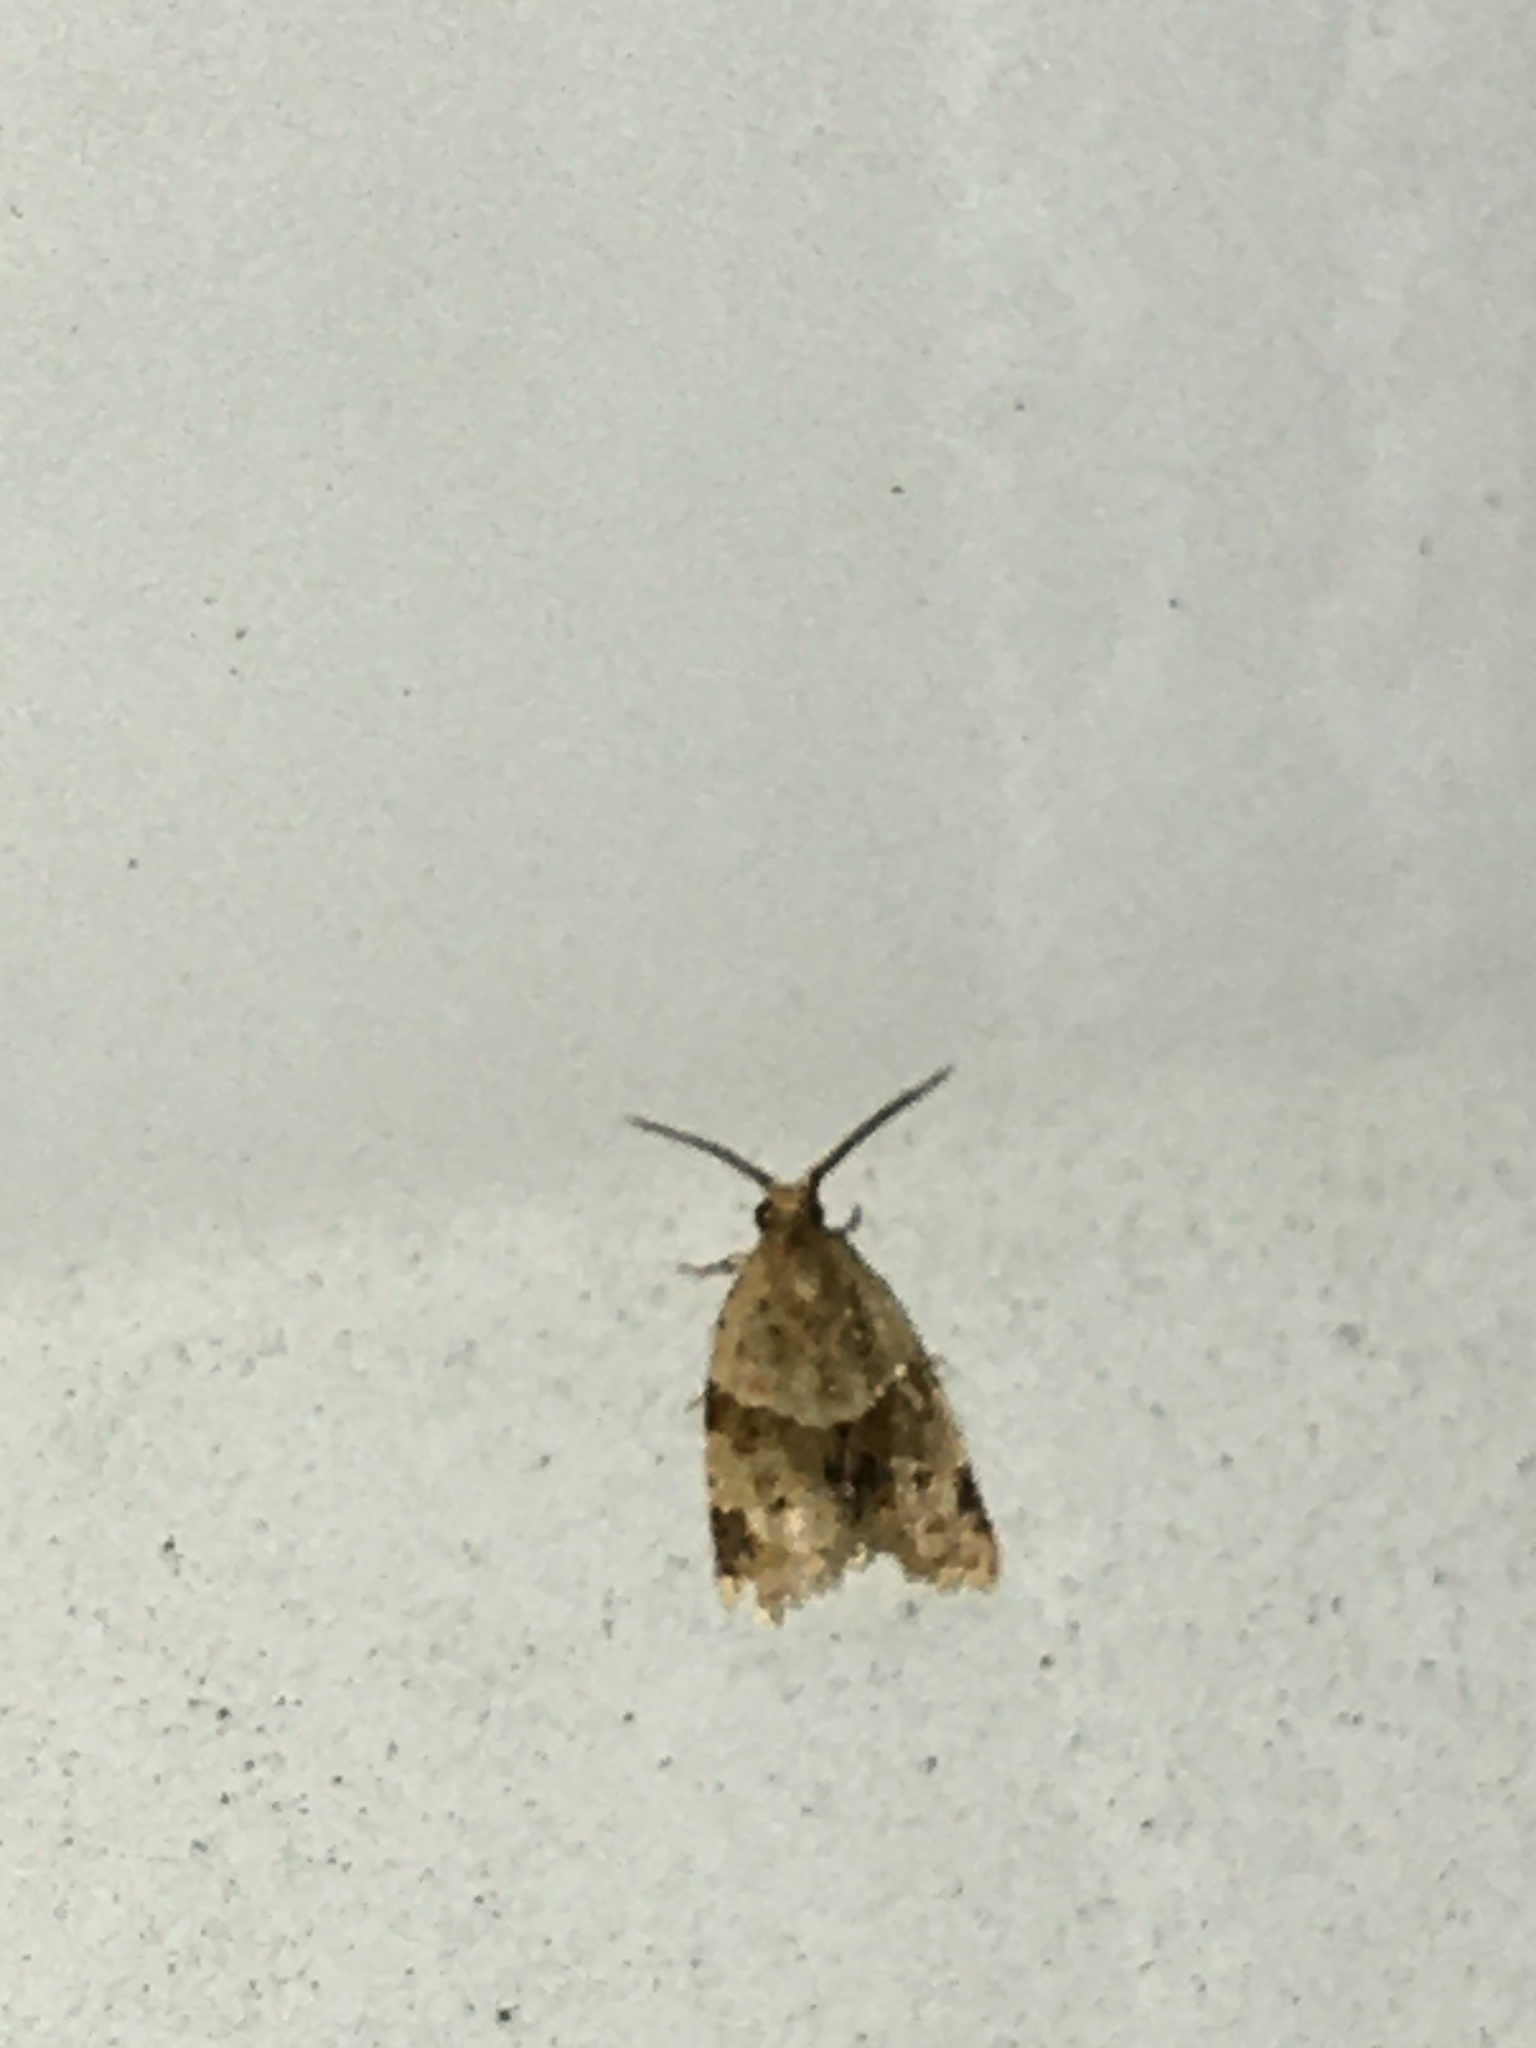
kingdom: Animalia
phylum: Arthropoda
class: Insecta
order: Lepidoptera
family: Tortricidae
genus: Clepsis
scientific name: Clepsis peritana
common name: Garden tortrix
